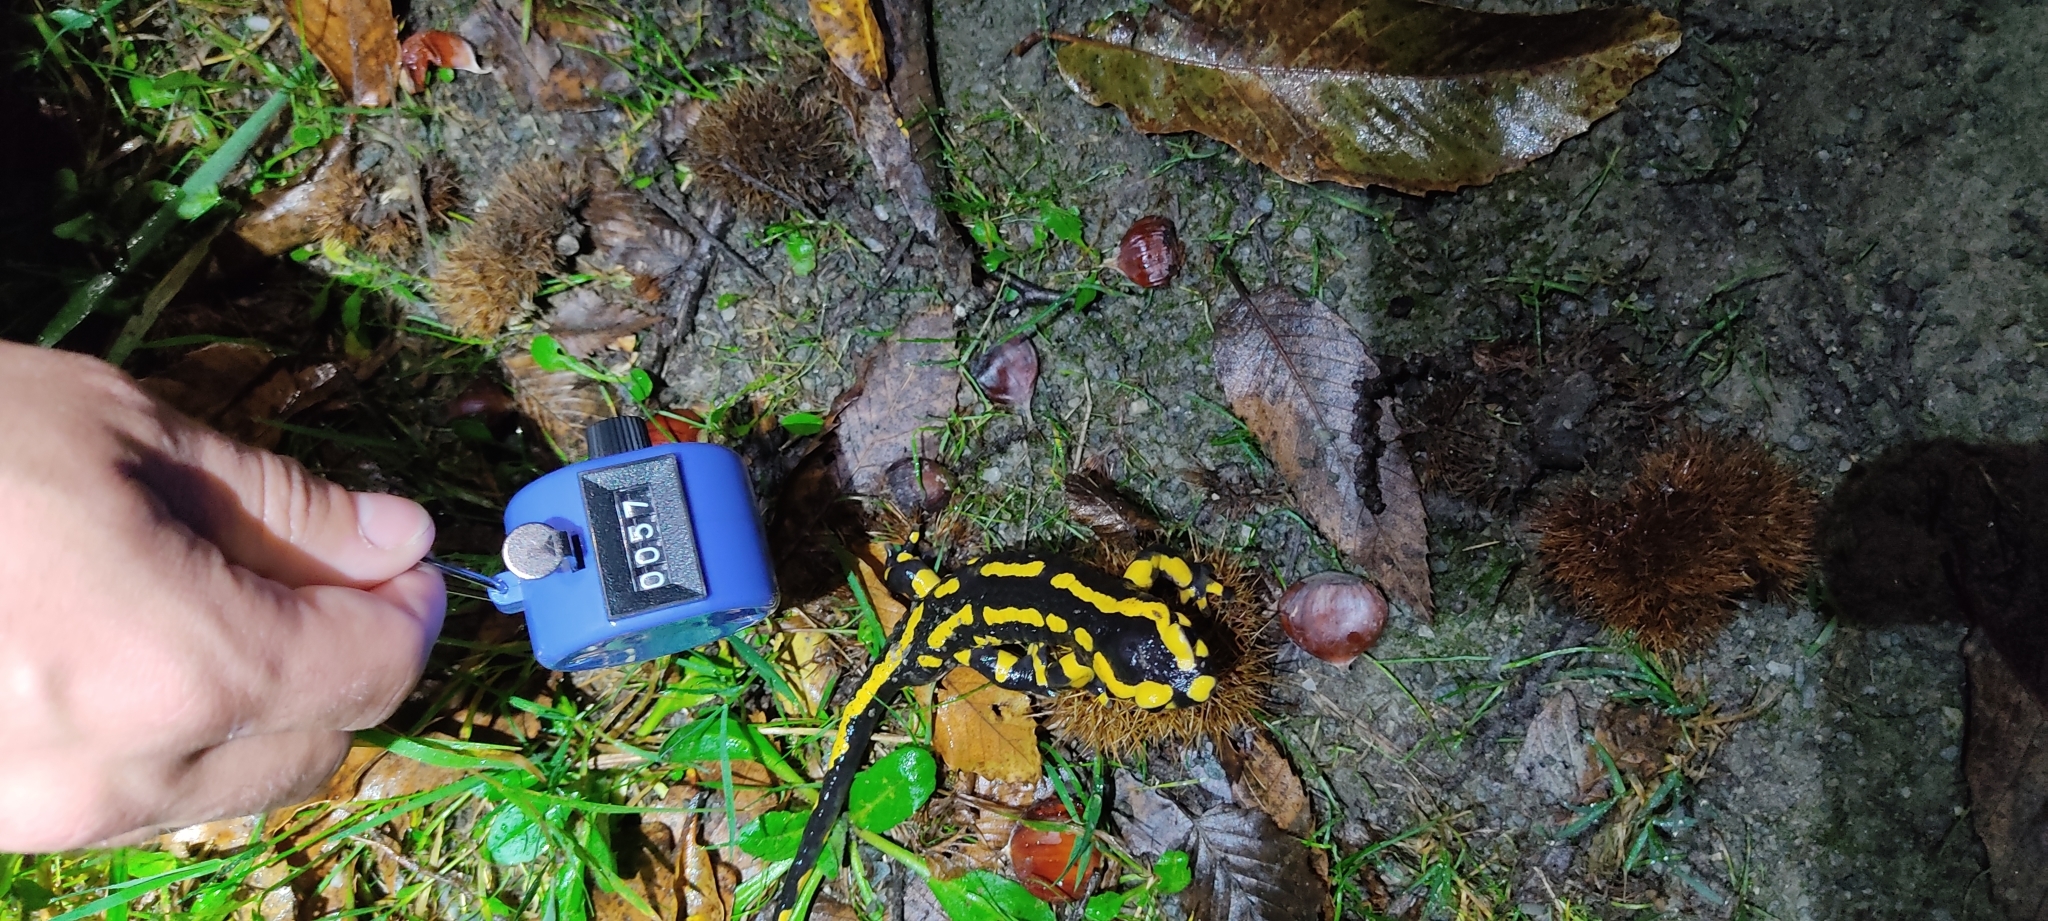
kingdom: Animalia
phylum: Chordata
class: Amphibia
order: Caudata
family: Salamandridae
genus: Salamandra
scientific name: Salamandra salamandra
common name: Fire salamander
